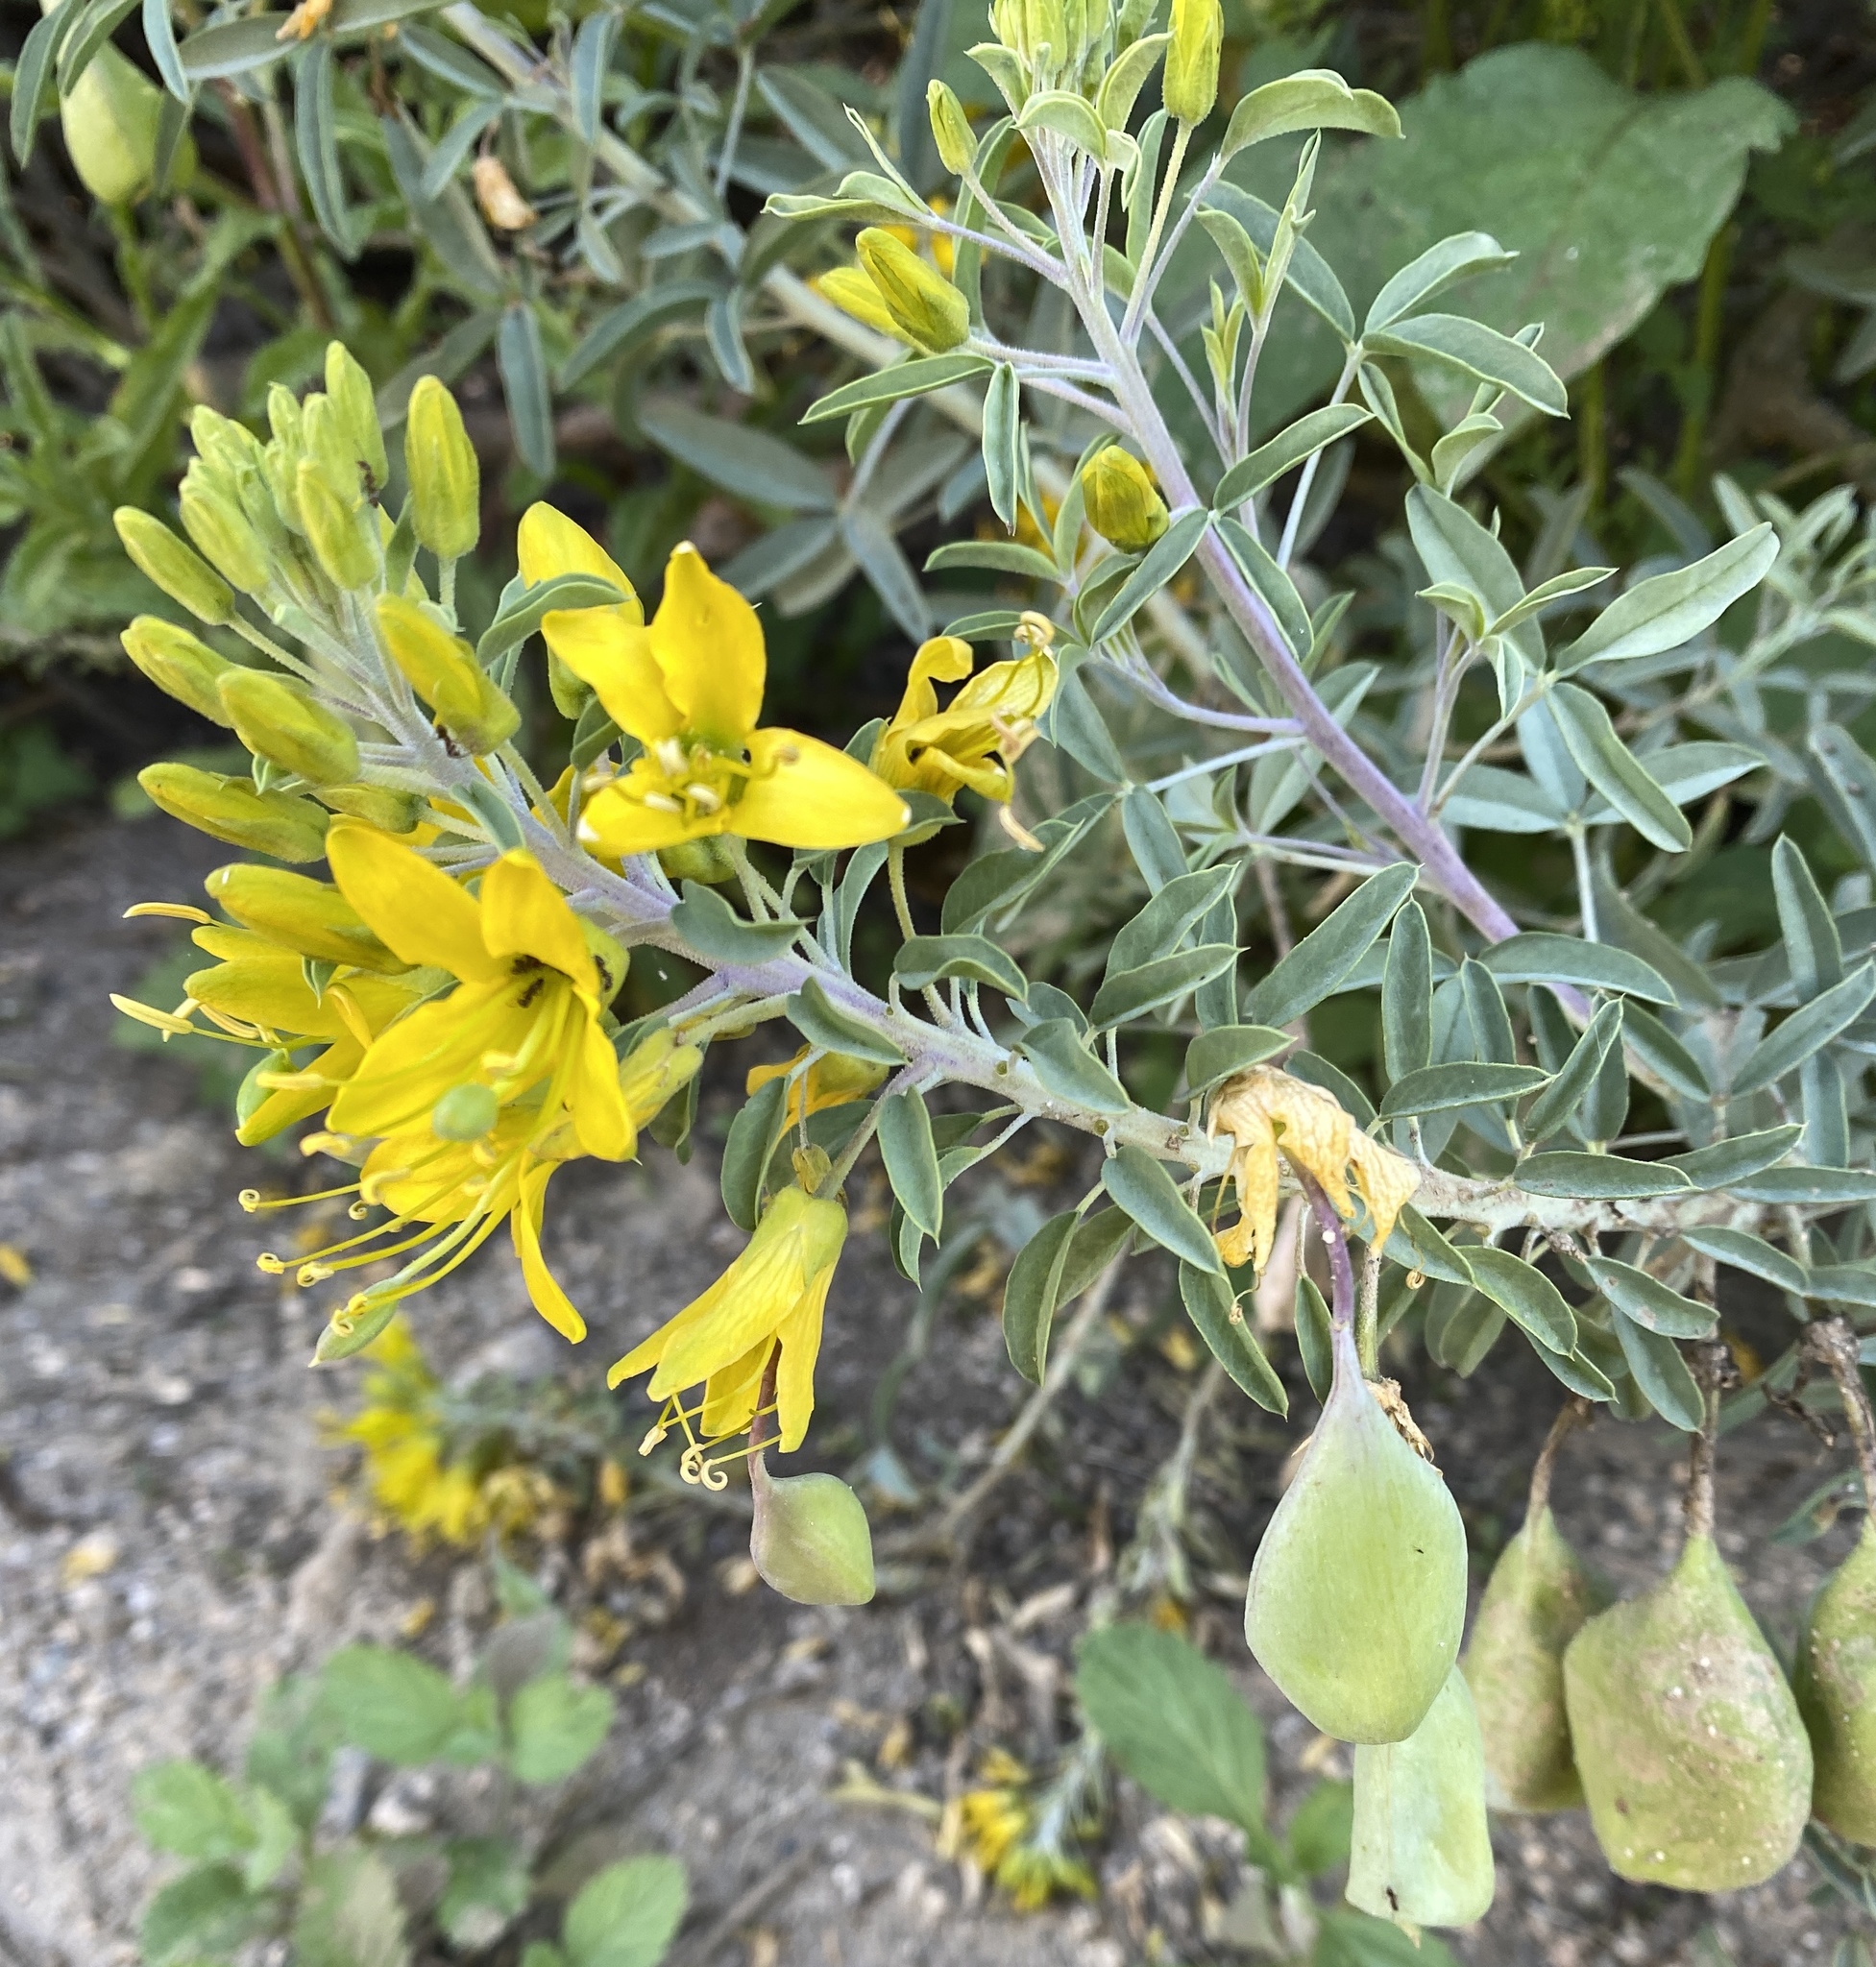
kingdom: Plantae
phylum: Tracheophyta
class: Magnoliopsida
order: Brassicales
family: Cleomaceae
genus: Cleomella
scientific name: Cleomella arborea
